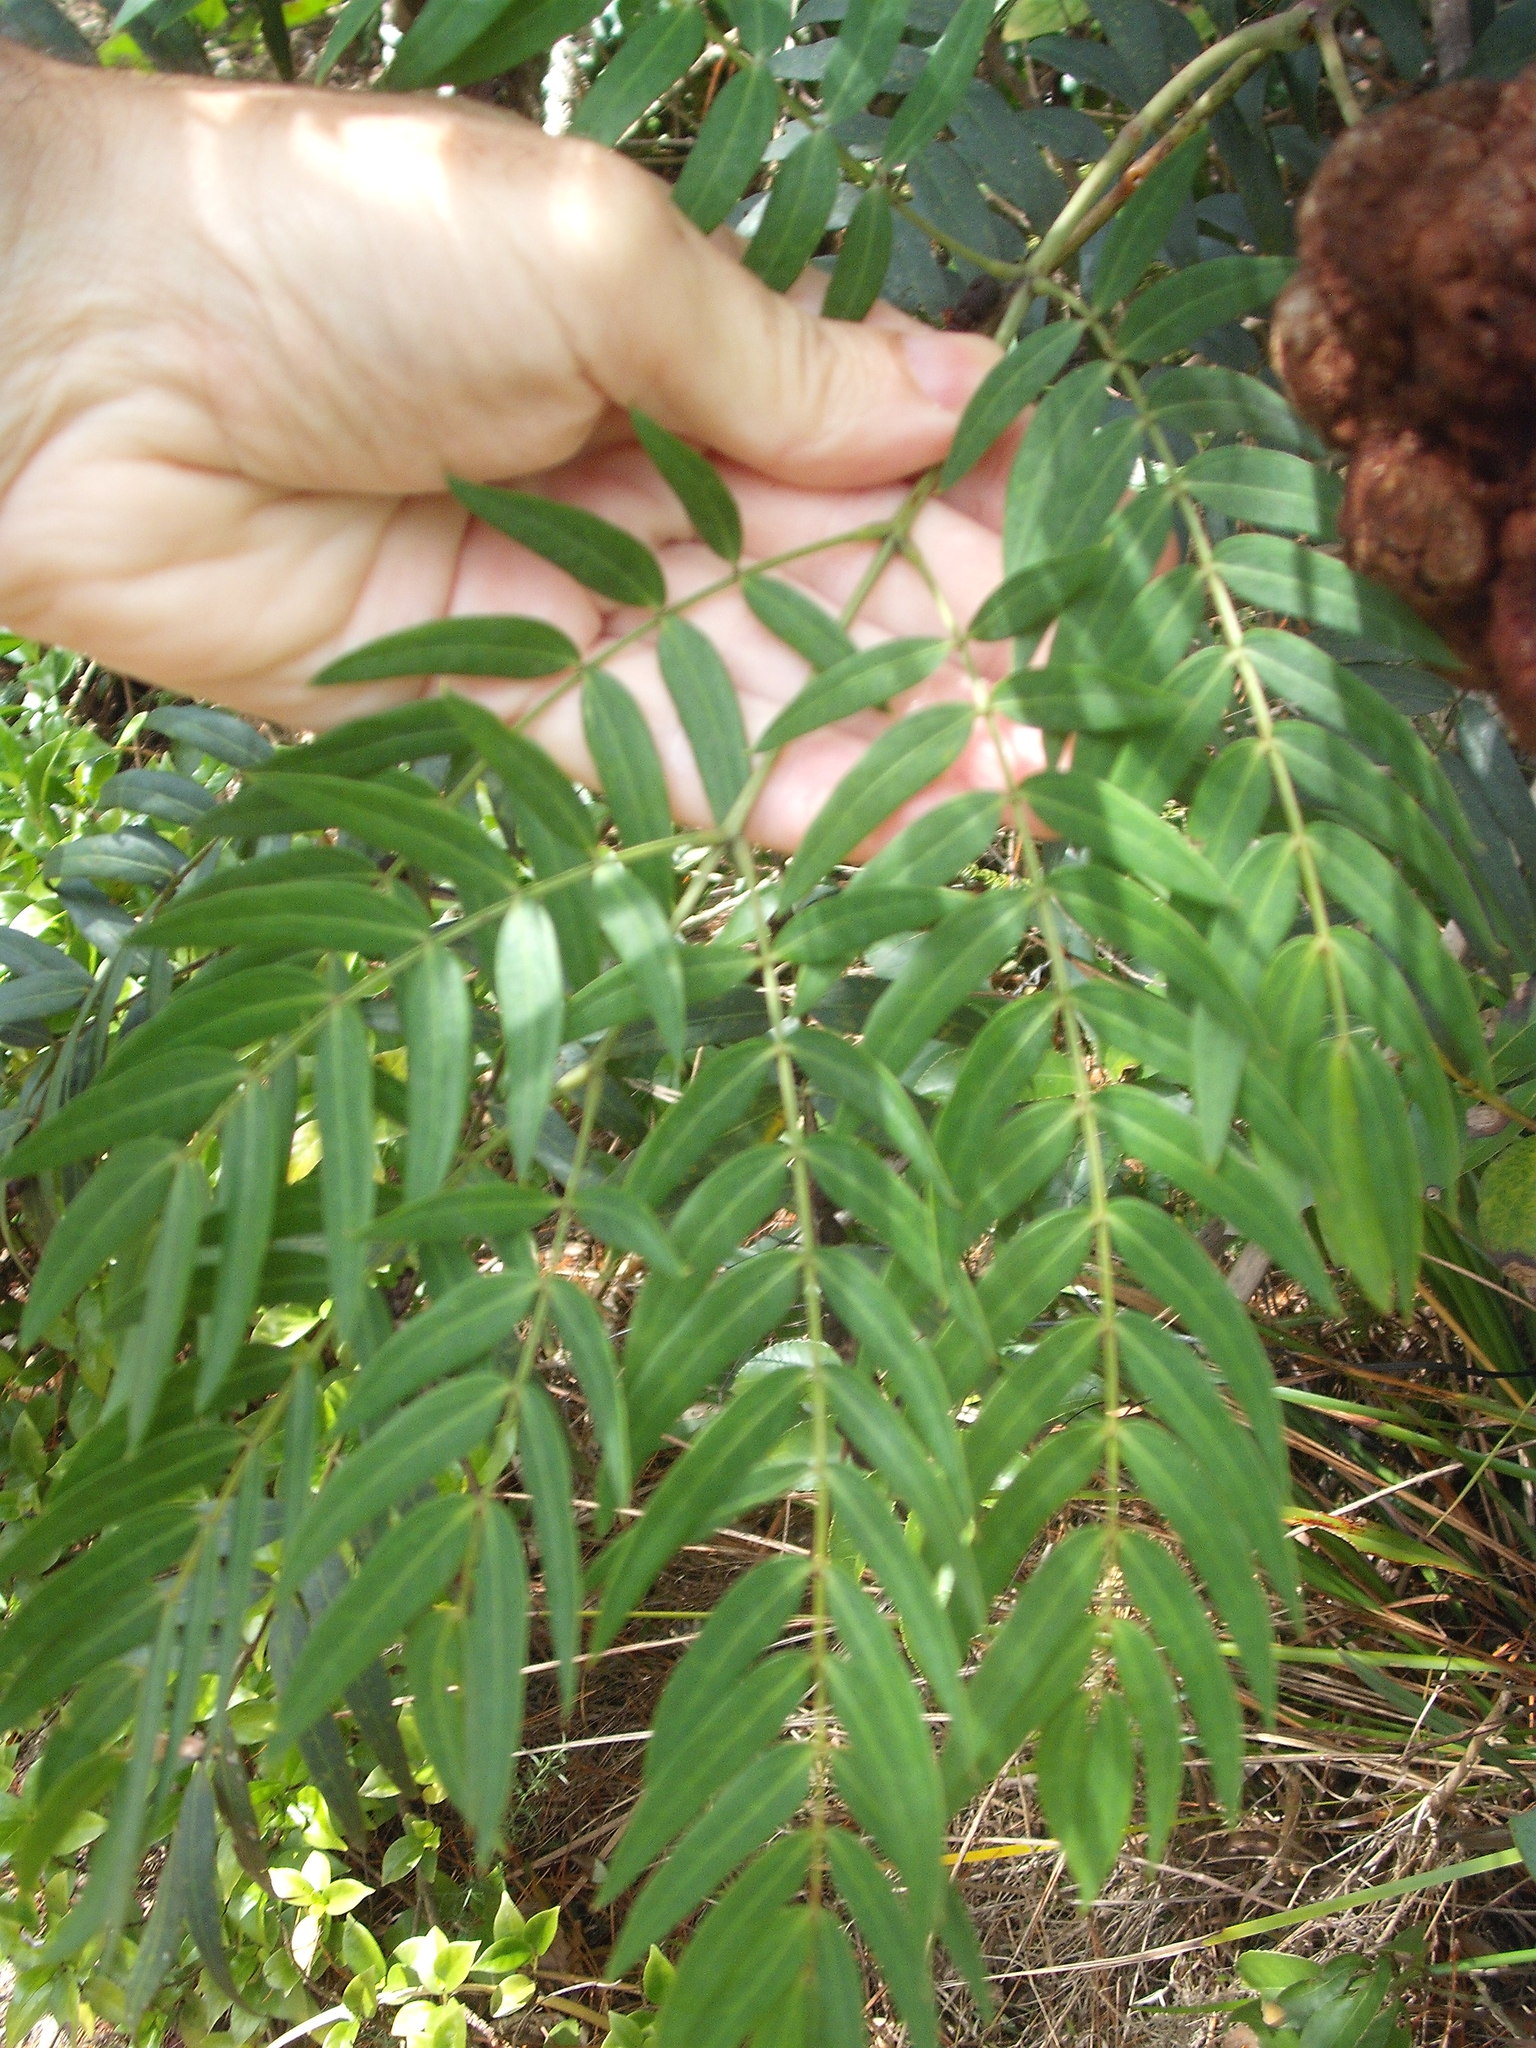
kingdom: Plantae
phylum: Tracheophyta
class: Magnoliopsida
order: Fabales
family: Fabaceae
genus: Acacia
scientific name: Acacia elata
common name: Cedar wattle
